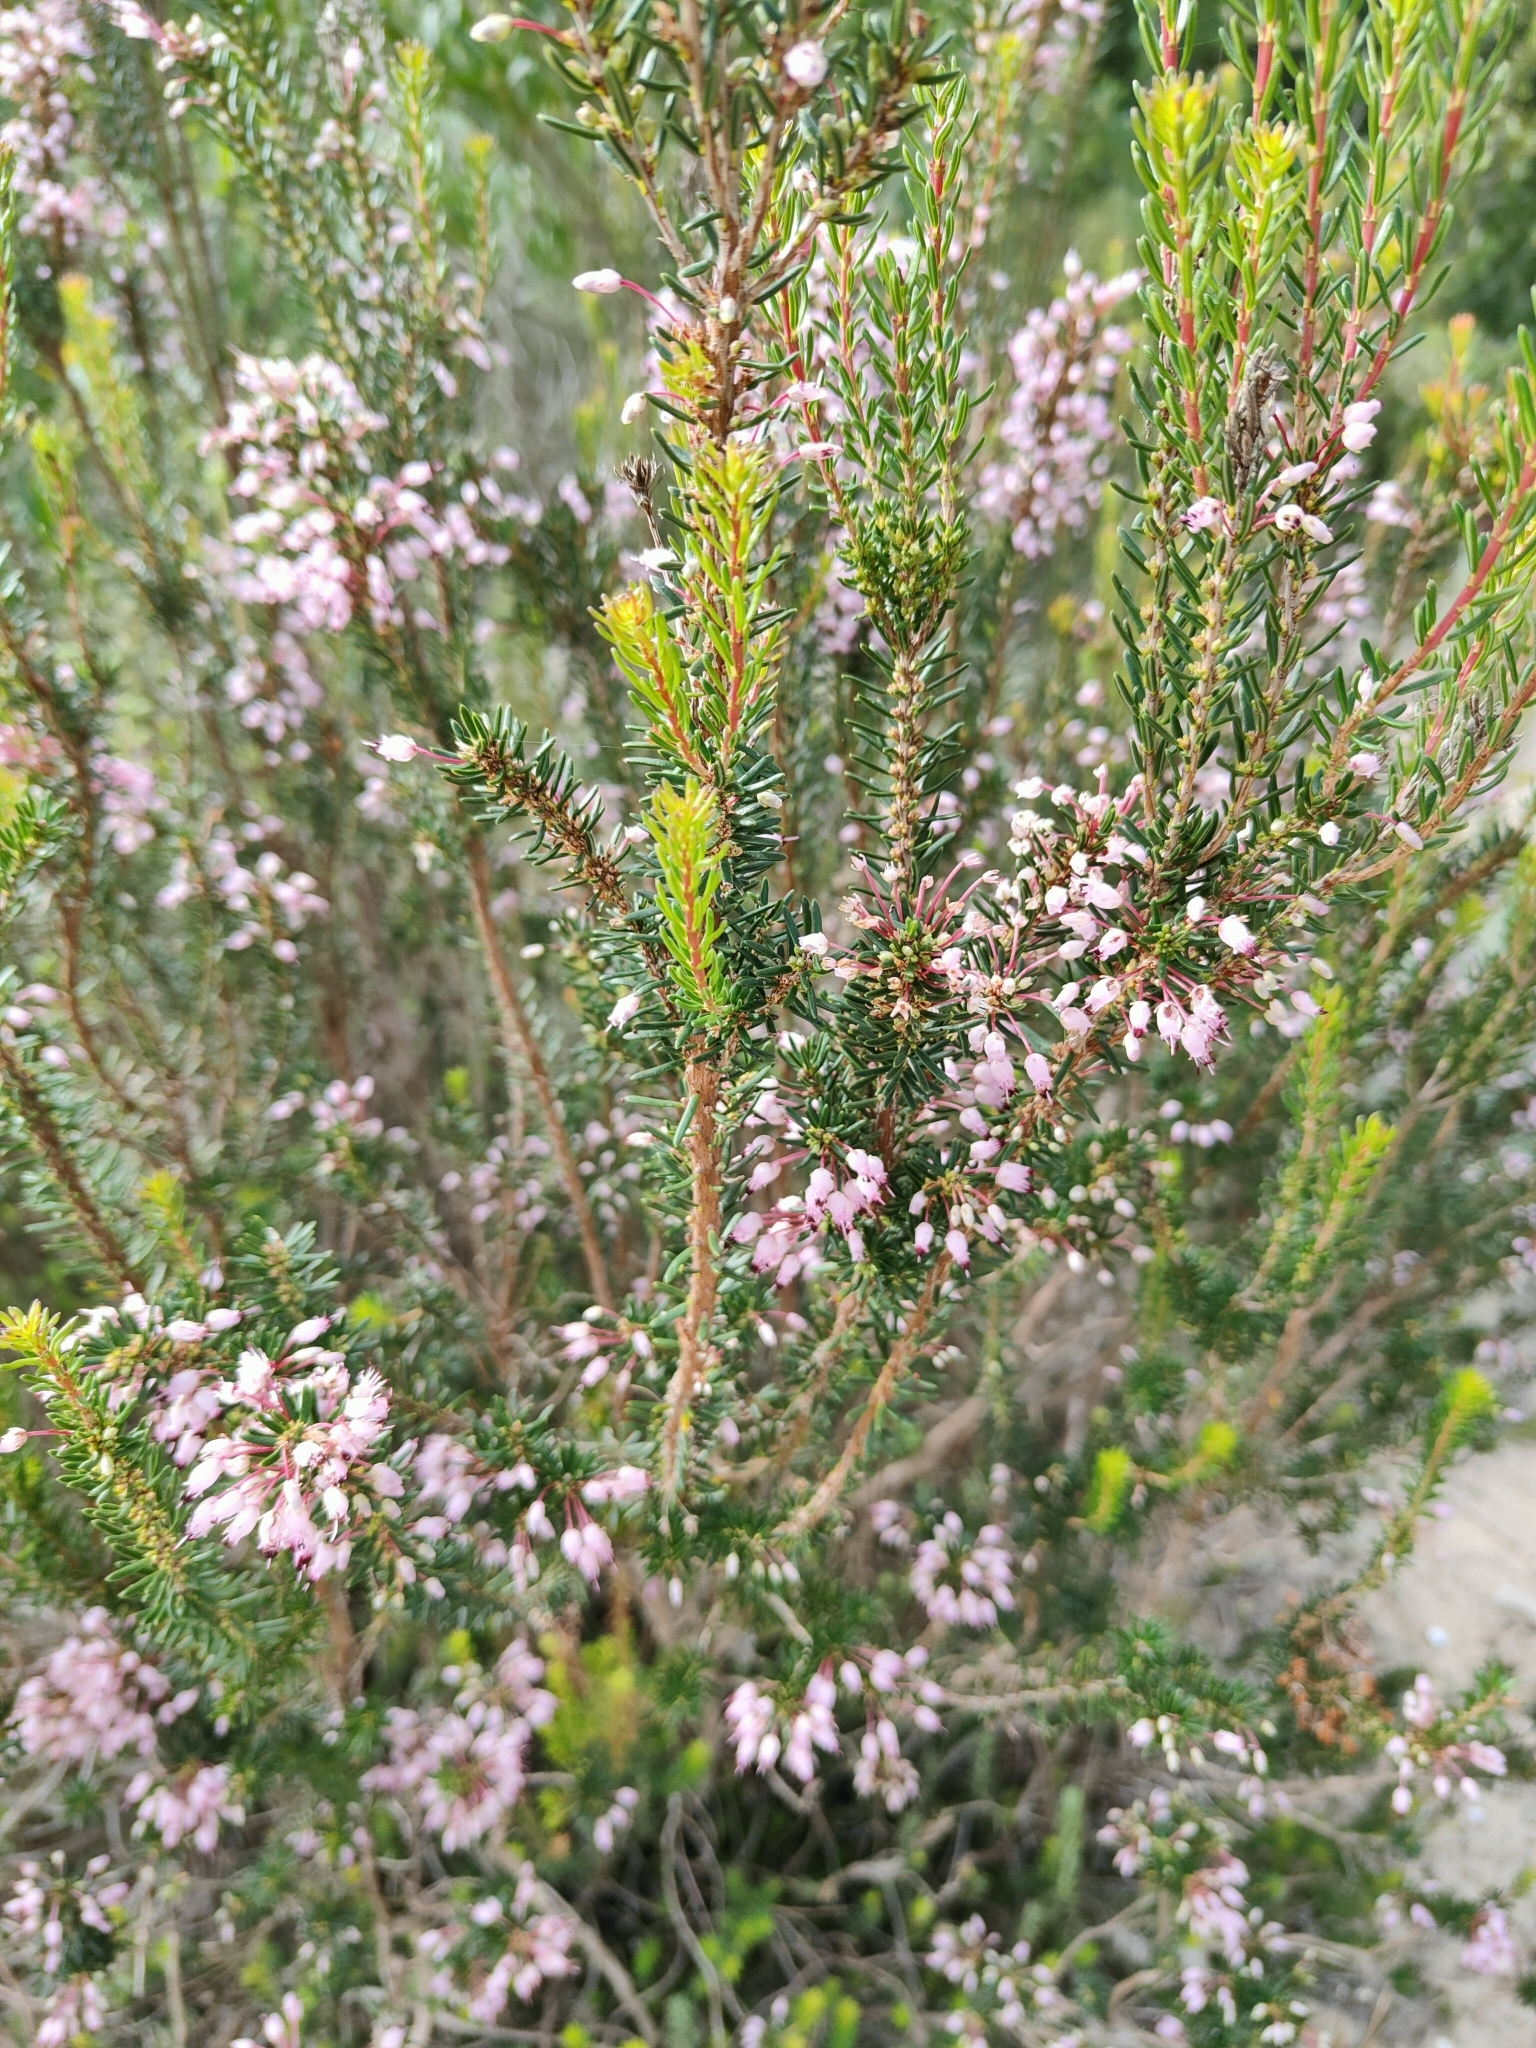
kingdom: Plantae
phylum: Tracheophyta
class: Magnoliopsida
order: Ericales
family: Ericaceae
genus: Erica
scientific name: Erica multiflora
